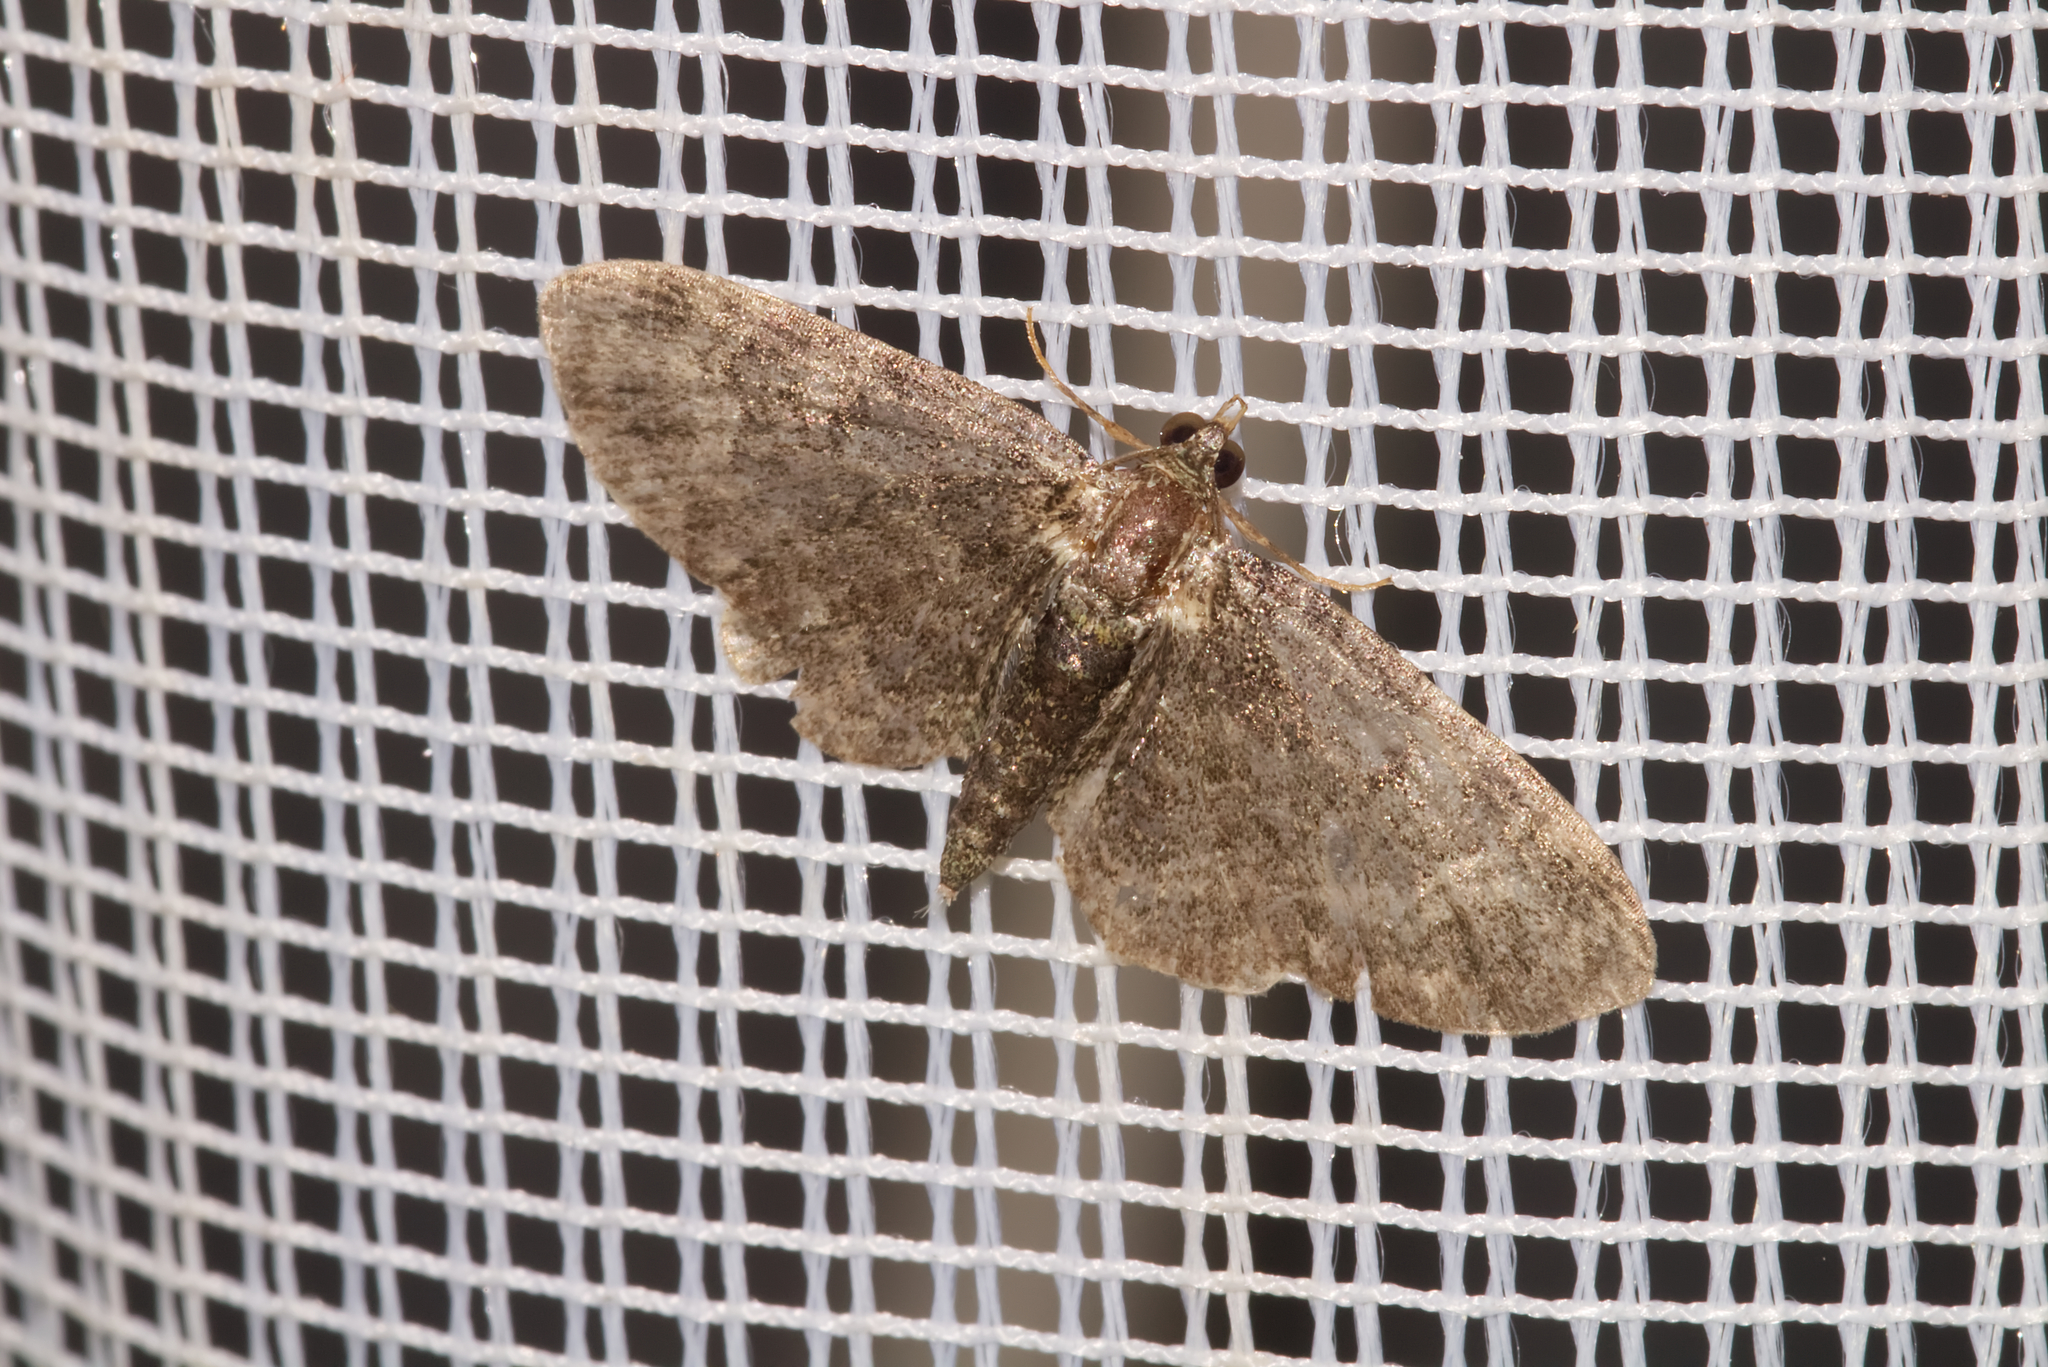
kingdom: Animalia
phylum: Arthropoda
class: Insecta
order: Lepidoptera
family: Geometridae
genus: Pasiphila
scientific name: Pasiphila rectangulata
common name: Green pug
